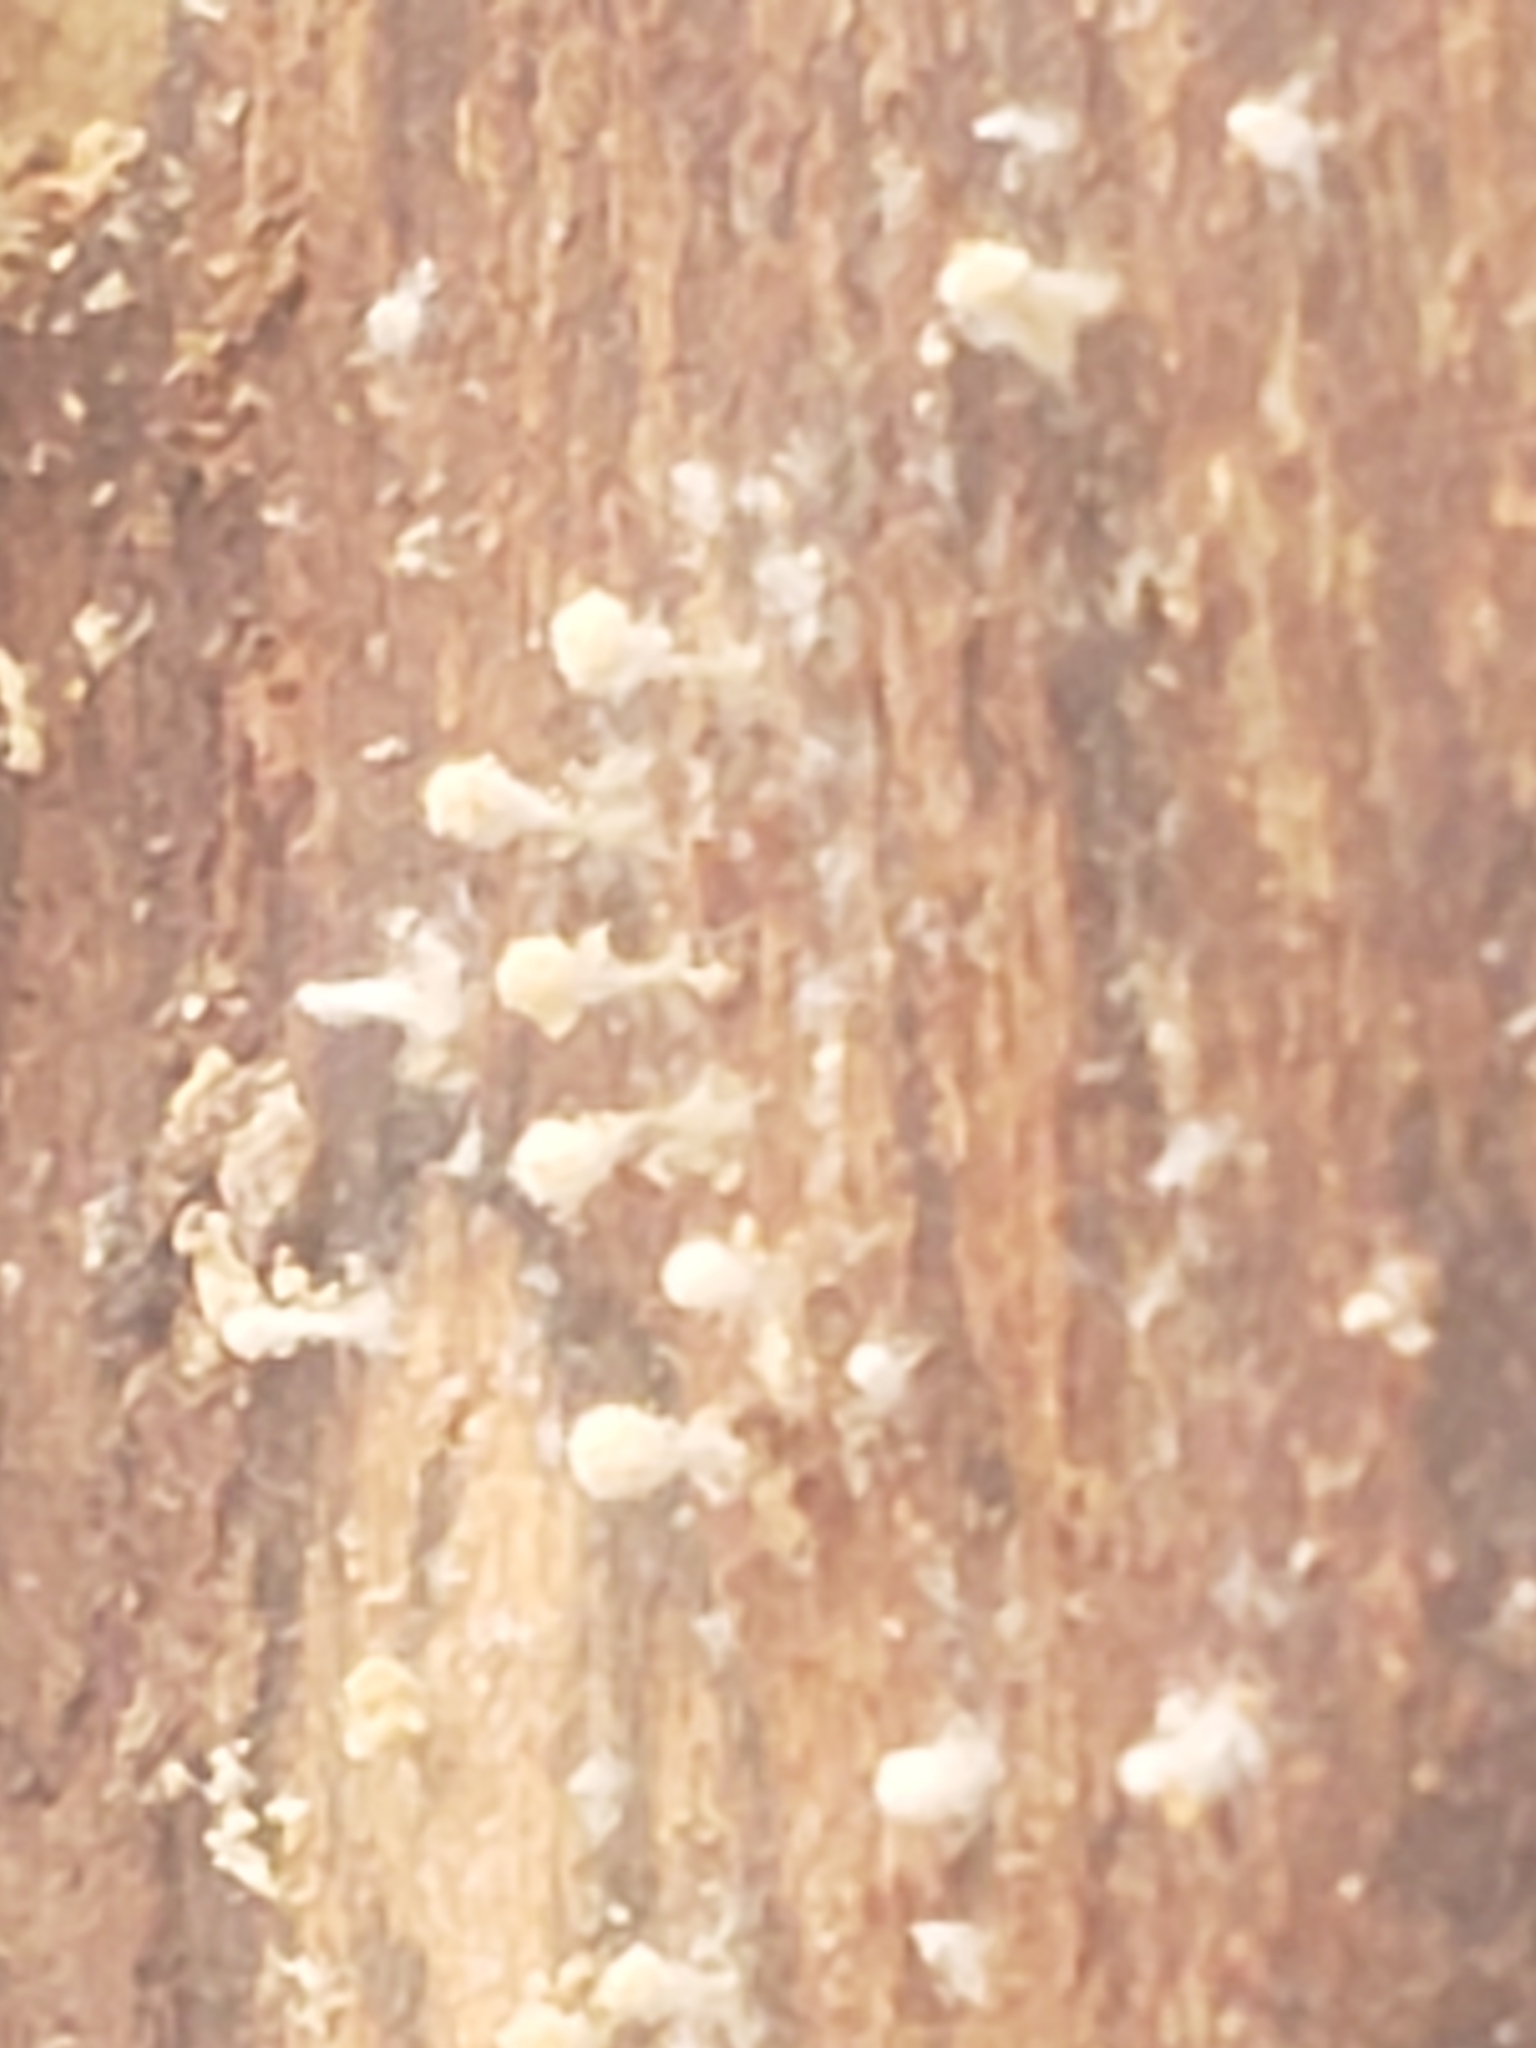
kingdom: Fungi
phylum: Basidiomycota
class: Atractiellomycetes
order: Atractiellales
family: Phleogenaceae
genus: Phleogena
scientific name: Phleogena faginea
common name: Fenugreek stalkball
